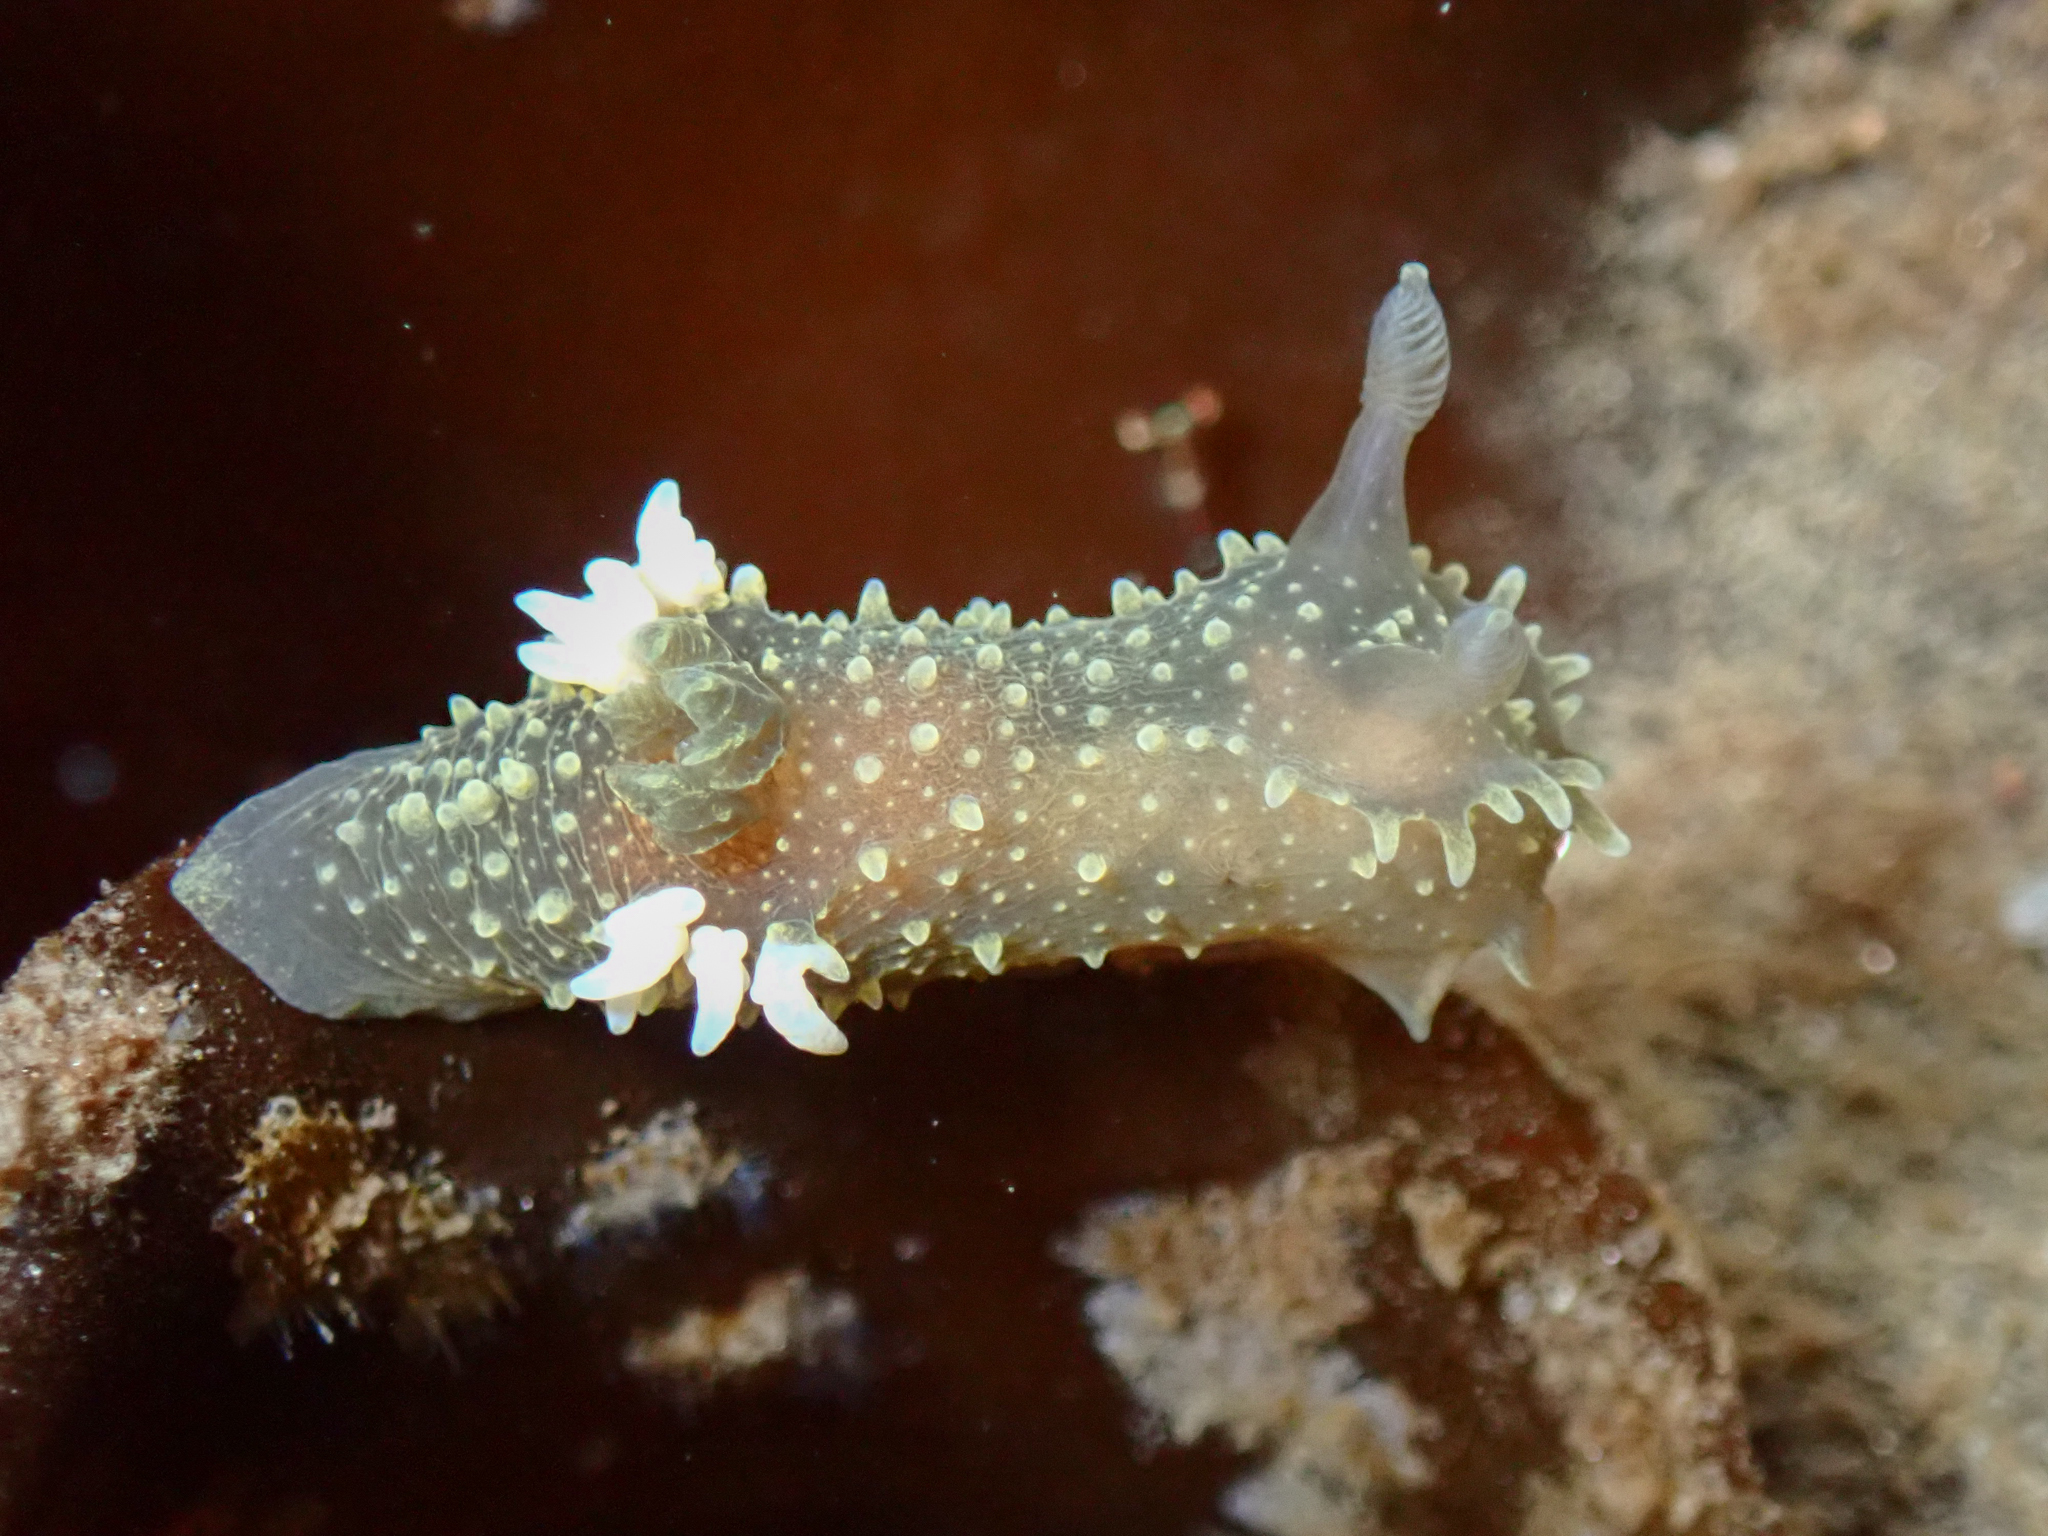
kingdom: Animalia
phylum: Mollusca
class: Gastropoda
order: Nudibranchia
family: Polyceridae
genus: Palio
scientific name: Palio dubia
